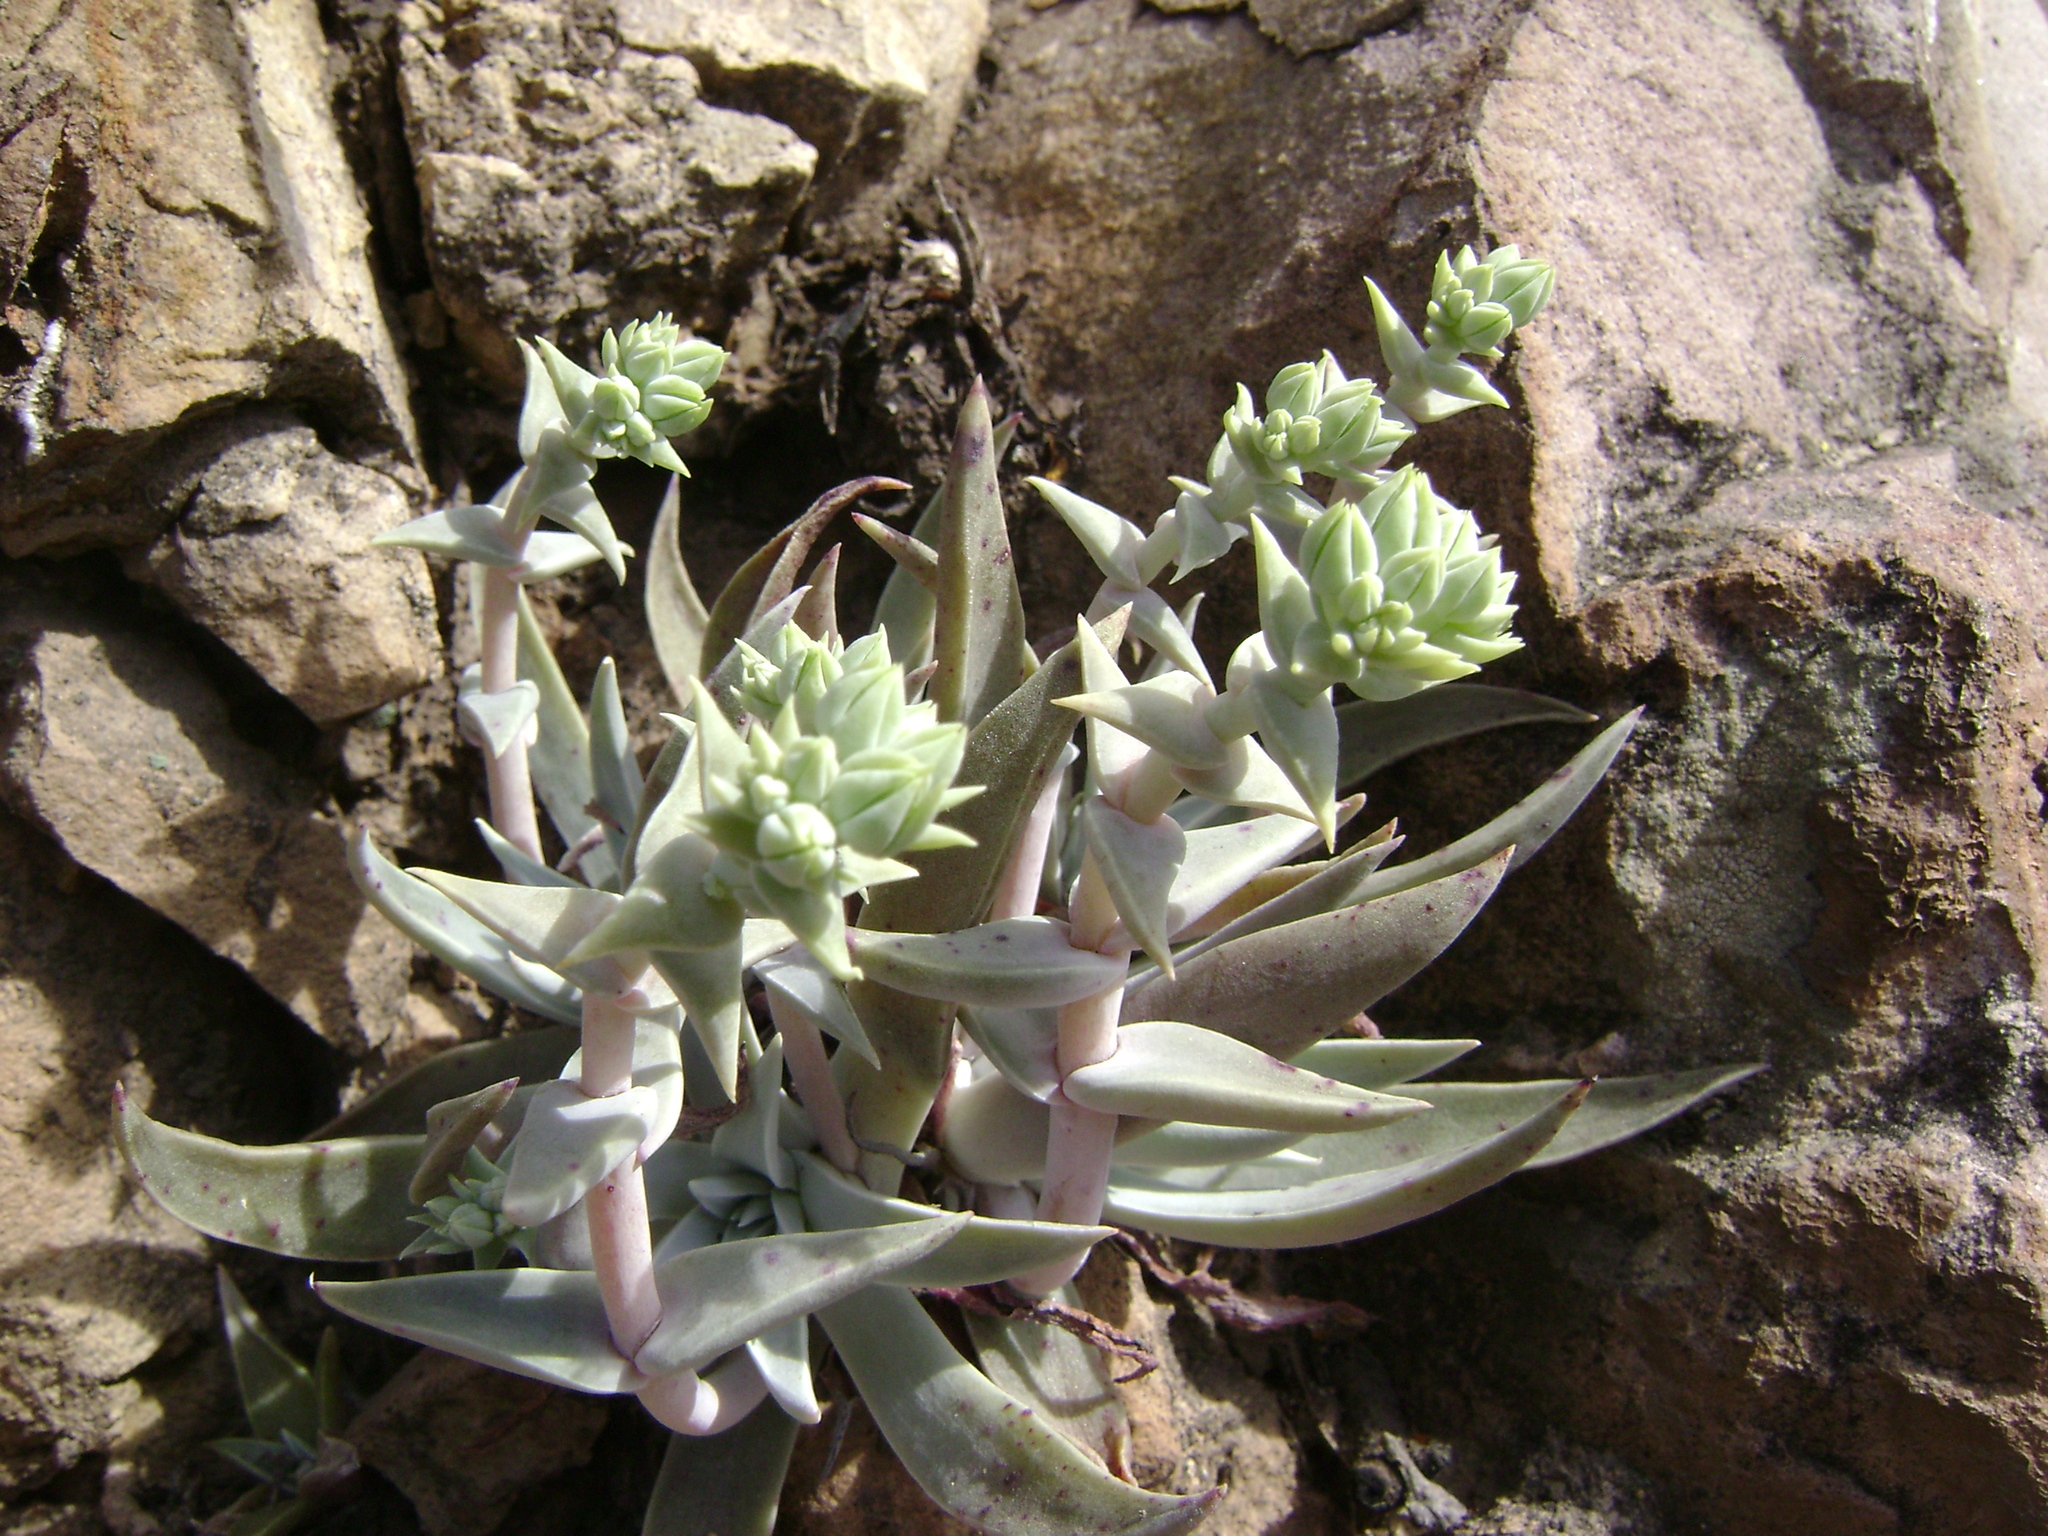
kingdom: Plantae
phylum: Tracheophyta
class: Magnoliopsida
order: Saxifragales
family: Crassulaceae
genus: Dudleya
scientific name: Dudleya verityi
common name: Verity dudleya
